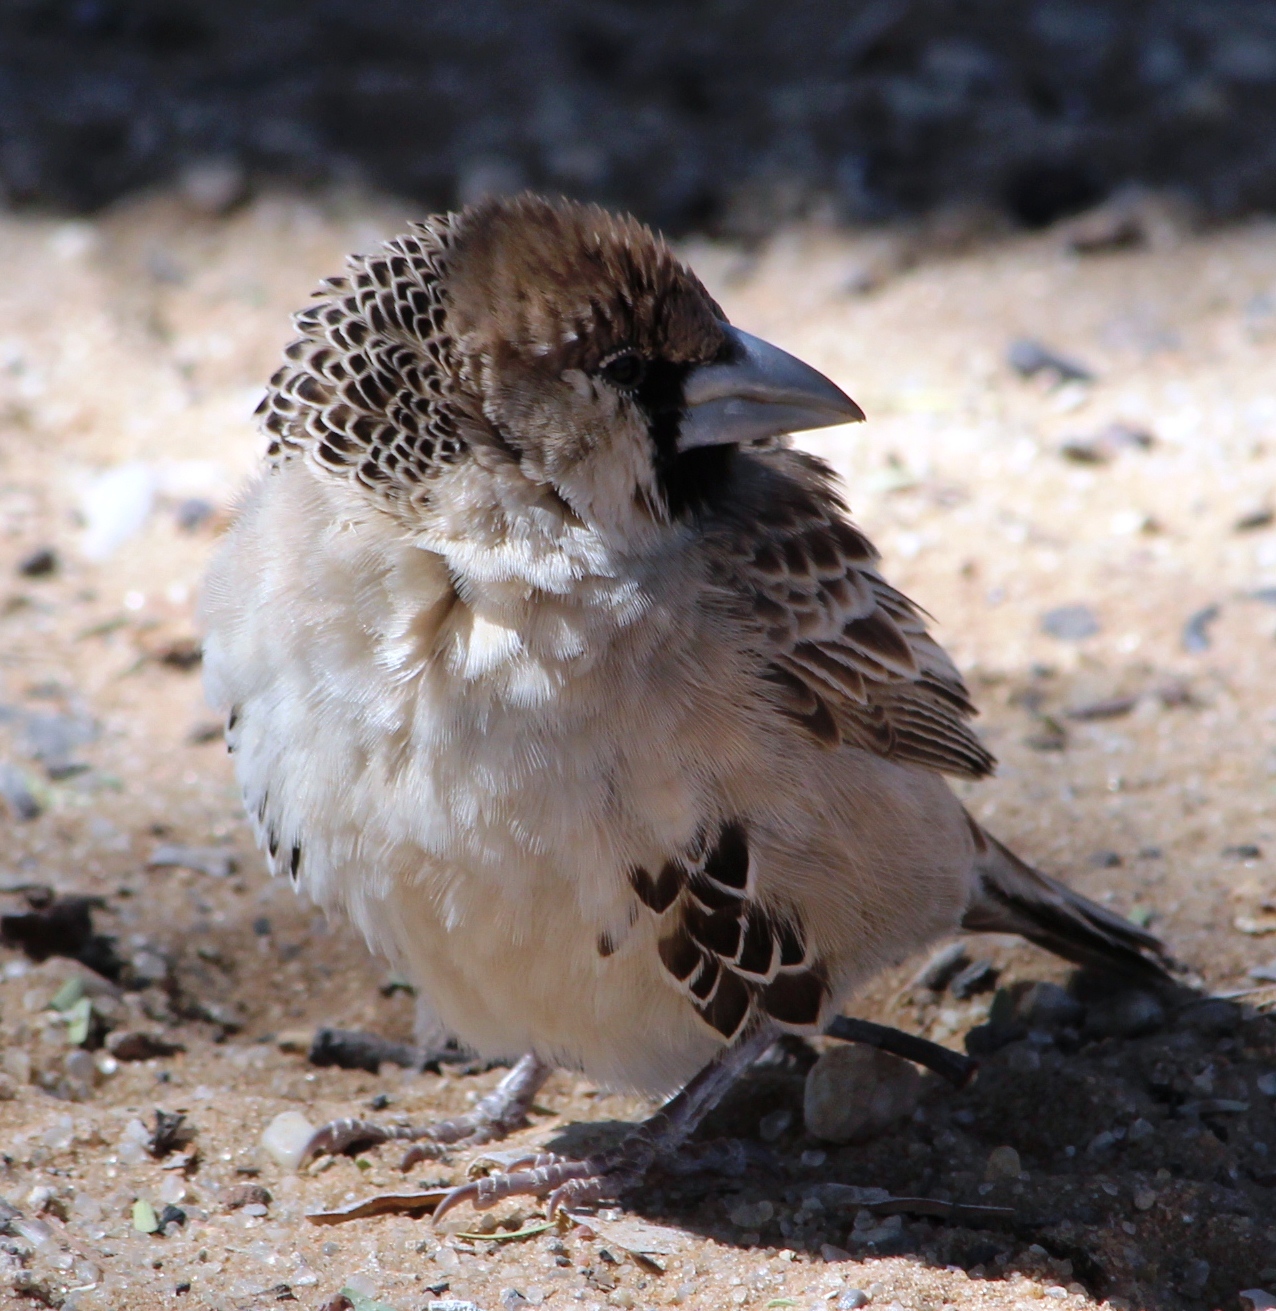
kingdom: Animalia
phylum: Chordata
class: Aves
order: Passeriformes
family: Passeridae
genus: Philetairus
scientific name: Philetairus socius
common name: Sociable weaver
